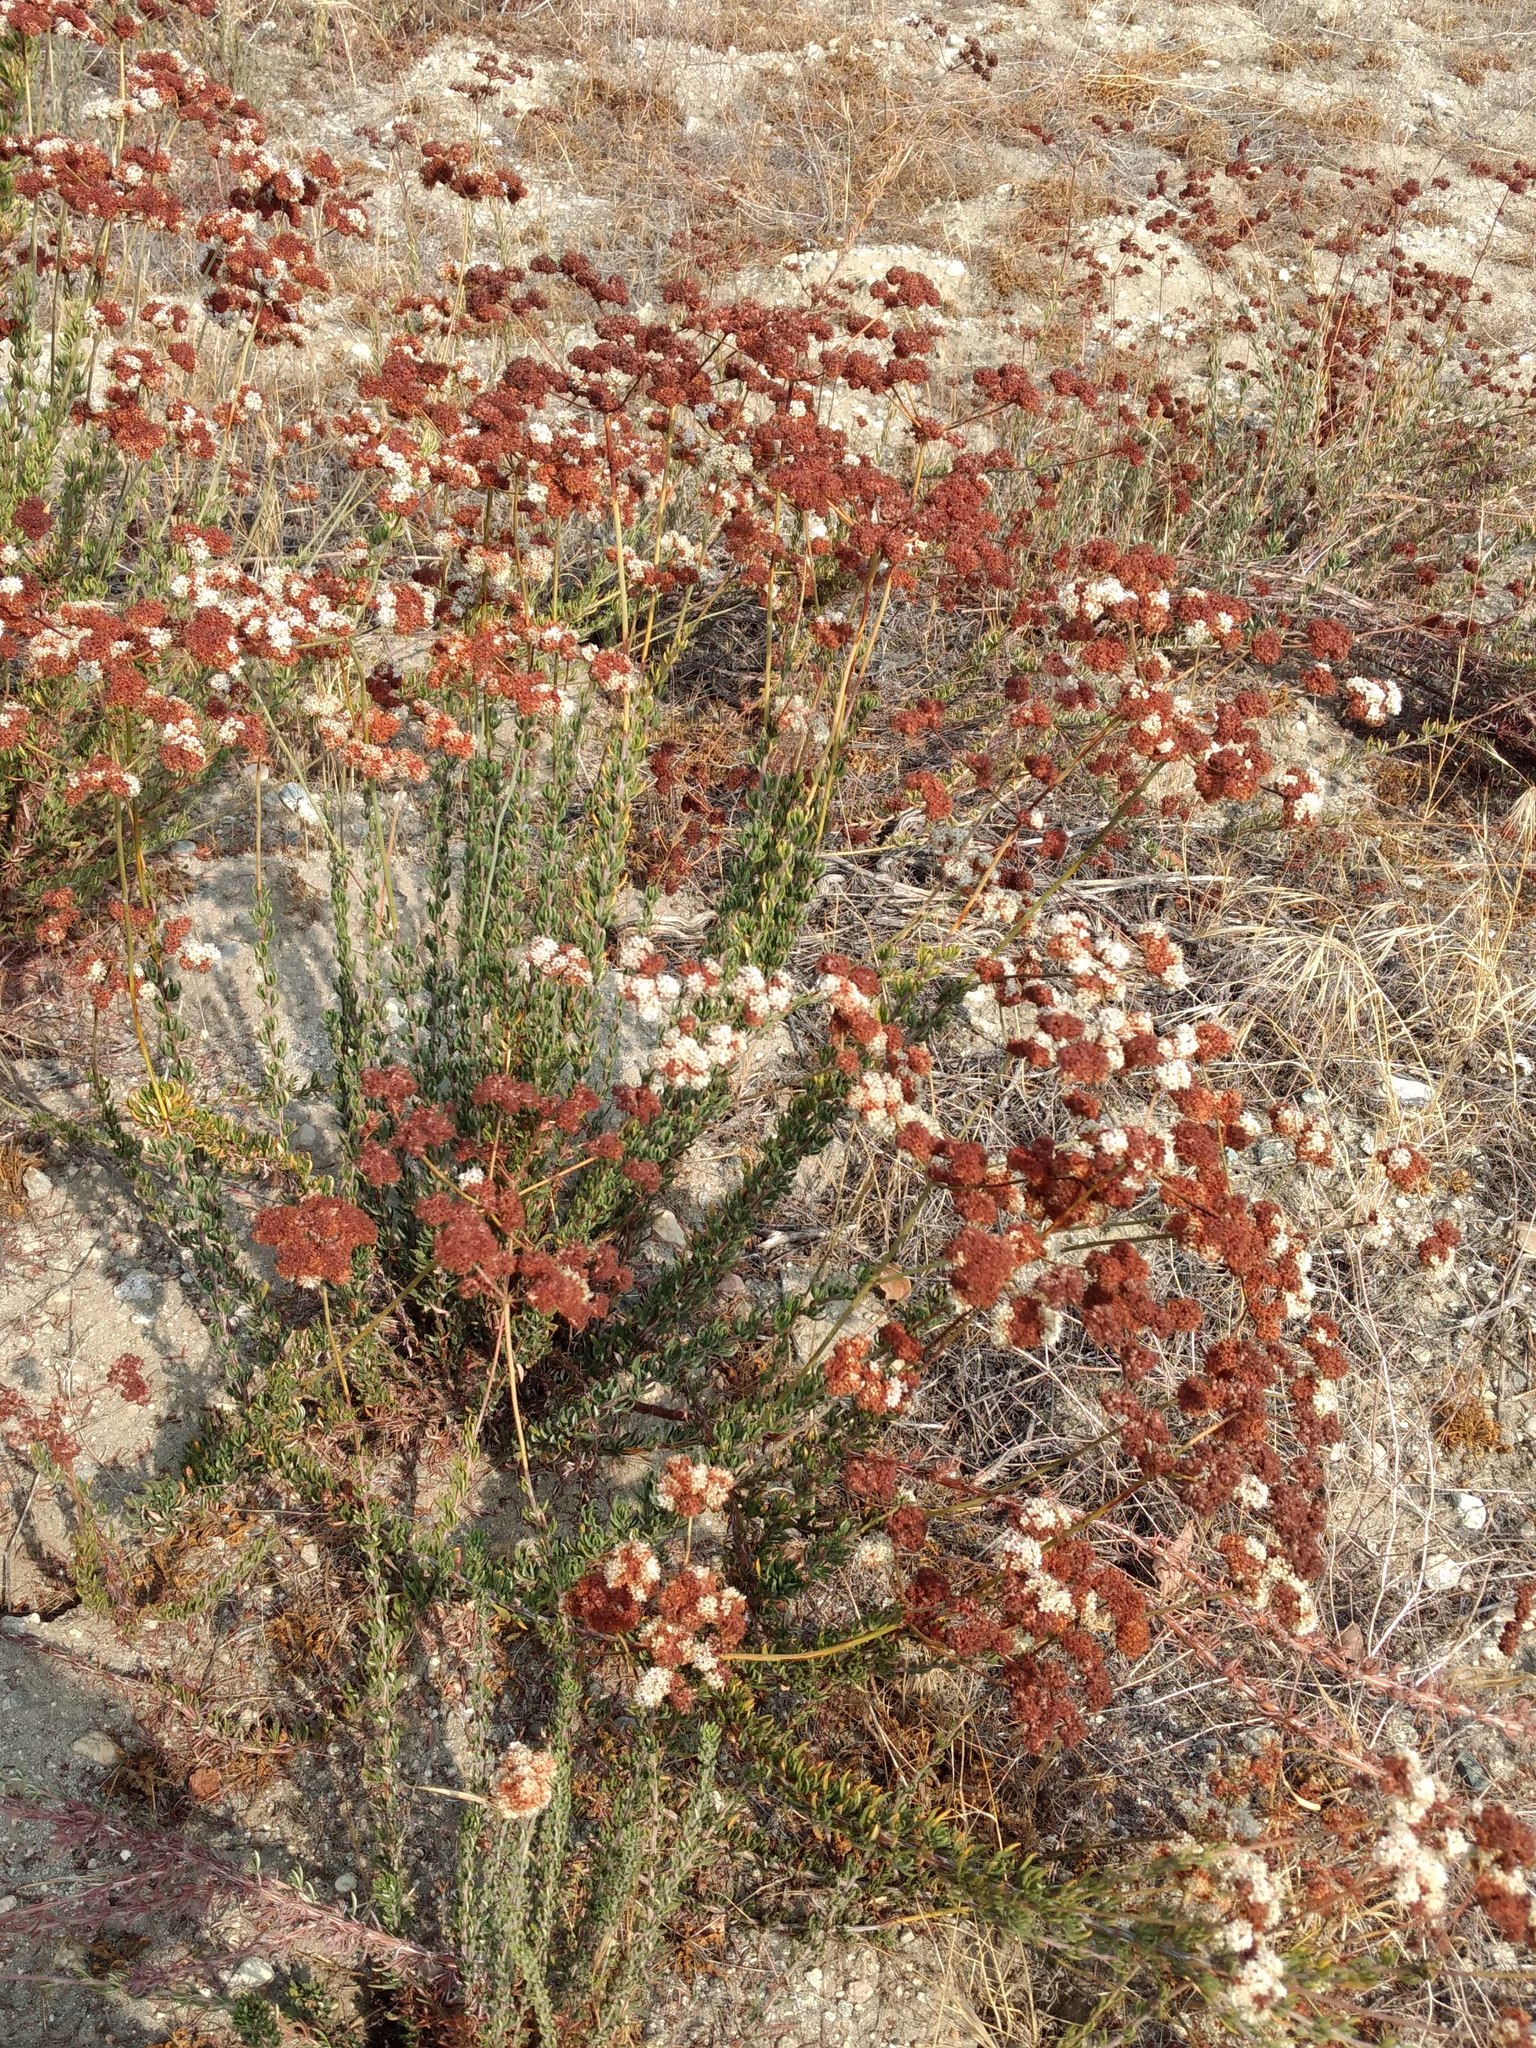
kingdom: Plantae
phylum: Tracheophyta
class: Magnoliopsida
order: Caryophyllales
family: Polygonaceae
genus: Eriogonum
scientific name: Eriogonum fasciculatum
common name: California wild buckwheat
